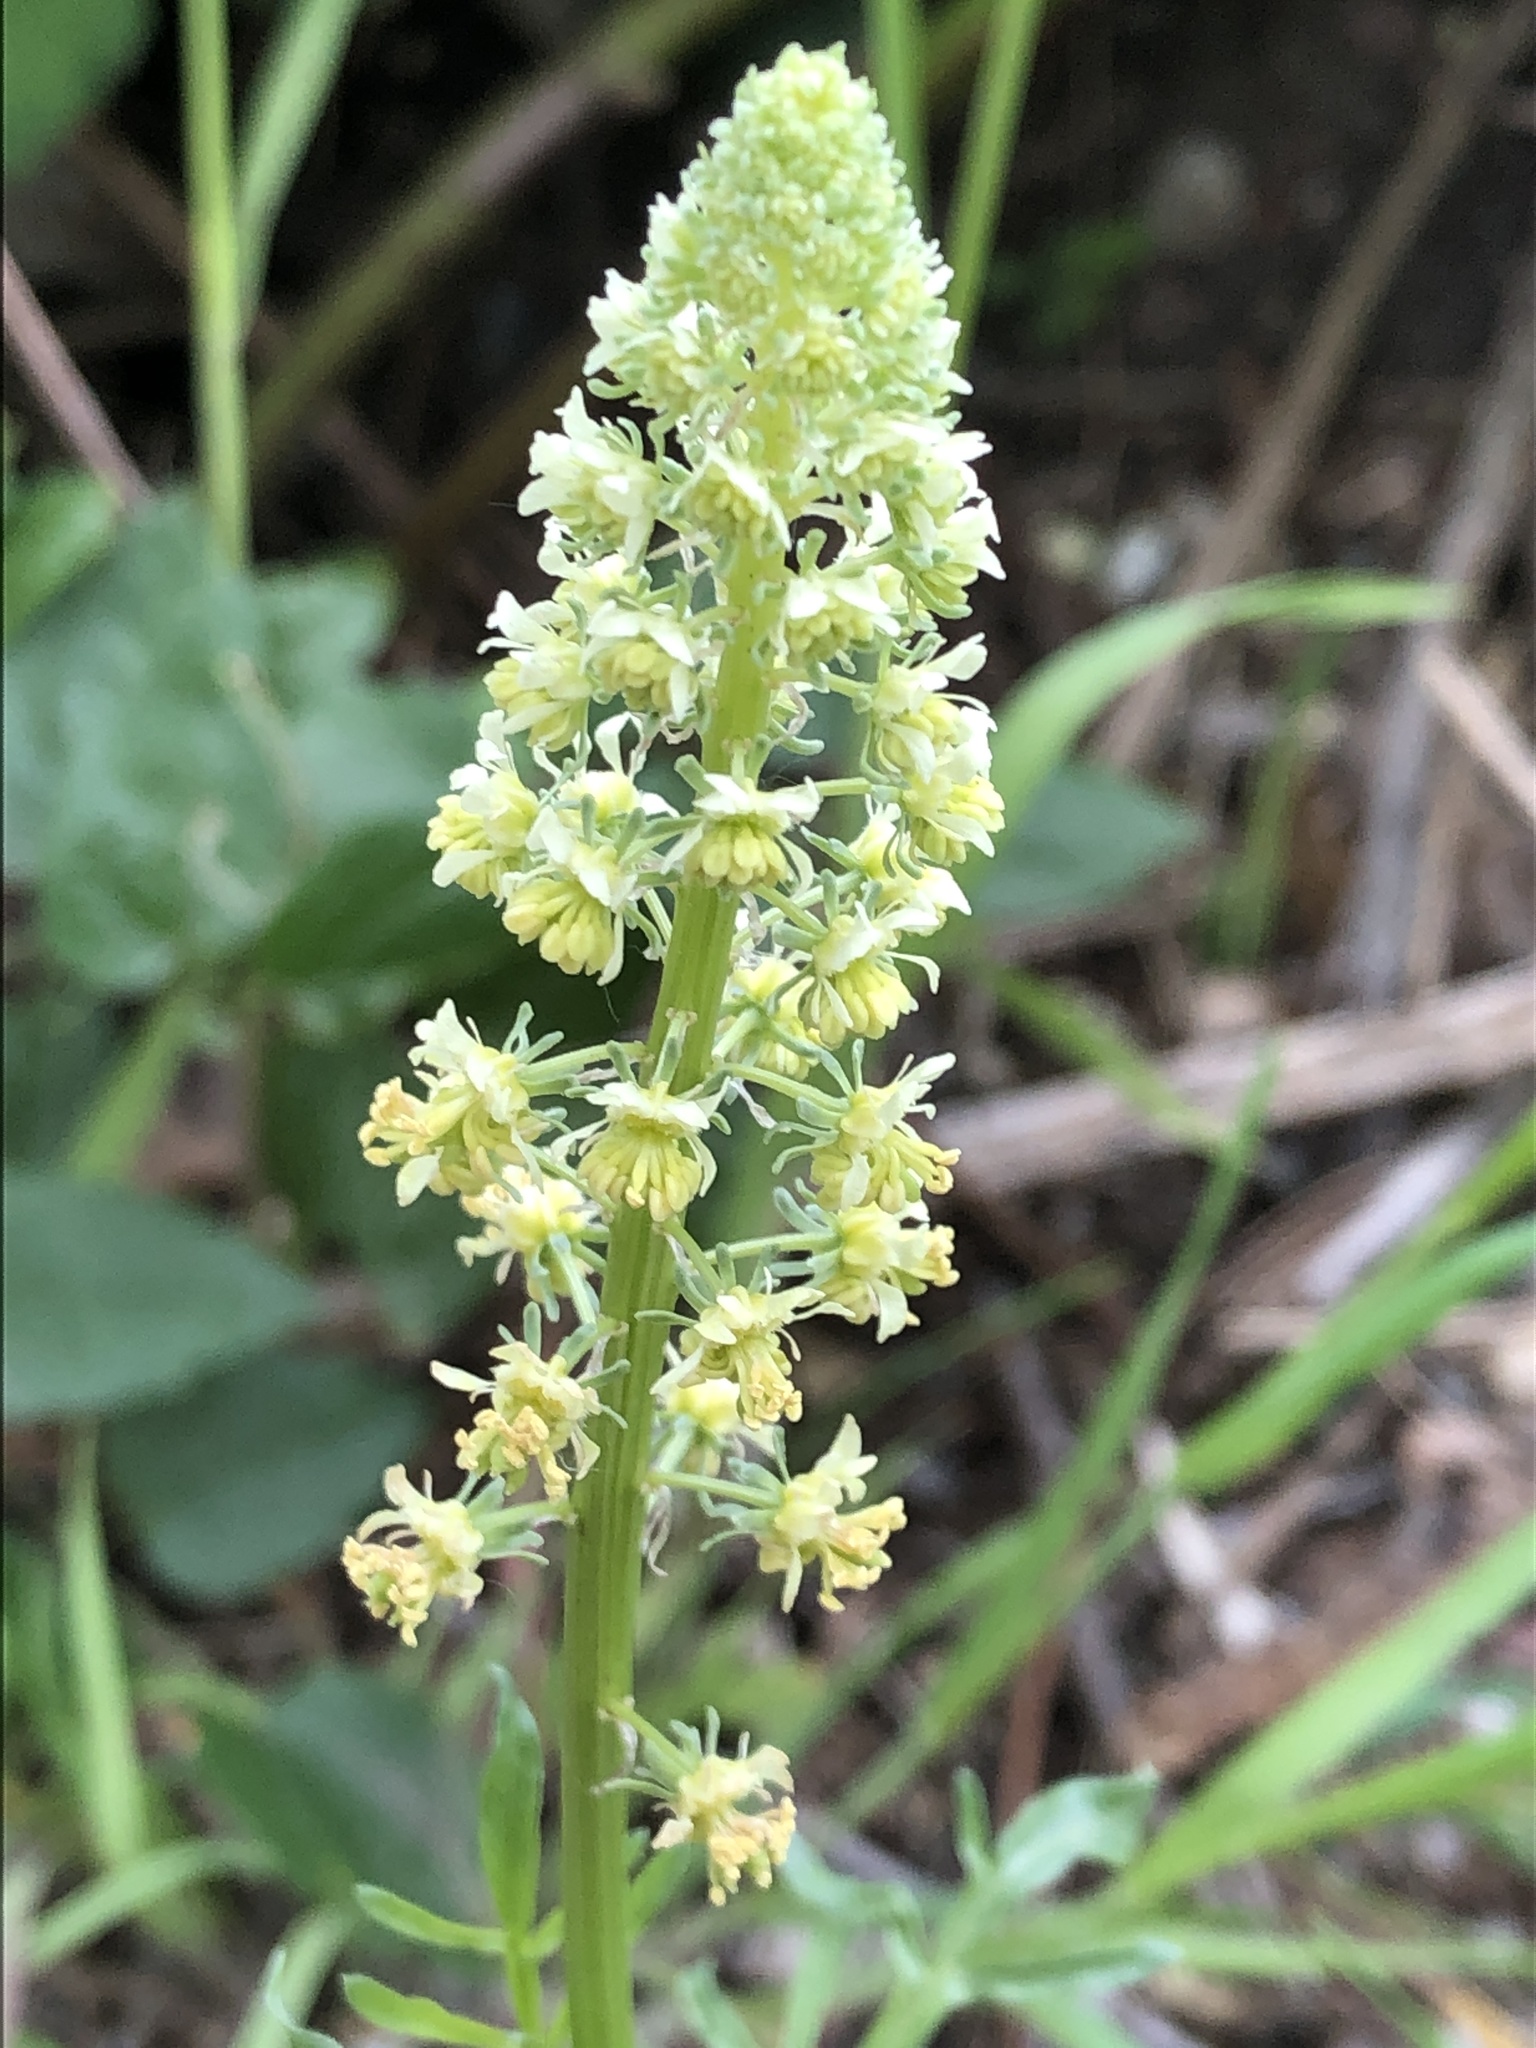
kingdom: Plantae
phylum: Tracheophyta
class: Magnoliopsida
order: Brassicales
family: Resedaceae
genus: Reseda
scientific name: Reseda lutea
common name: Wild mignonette
